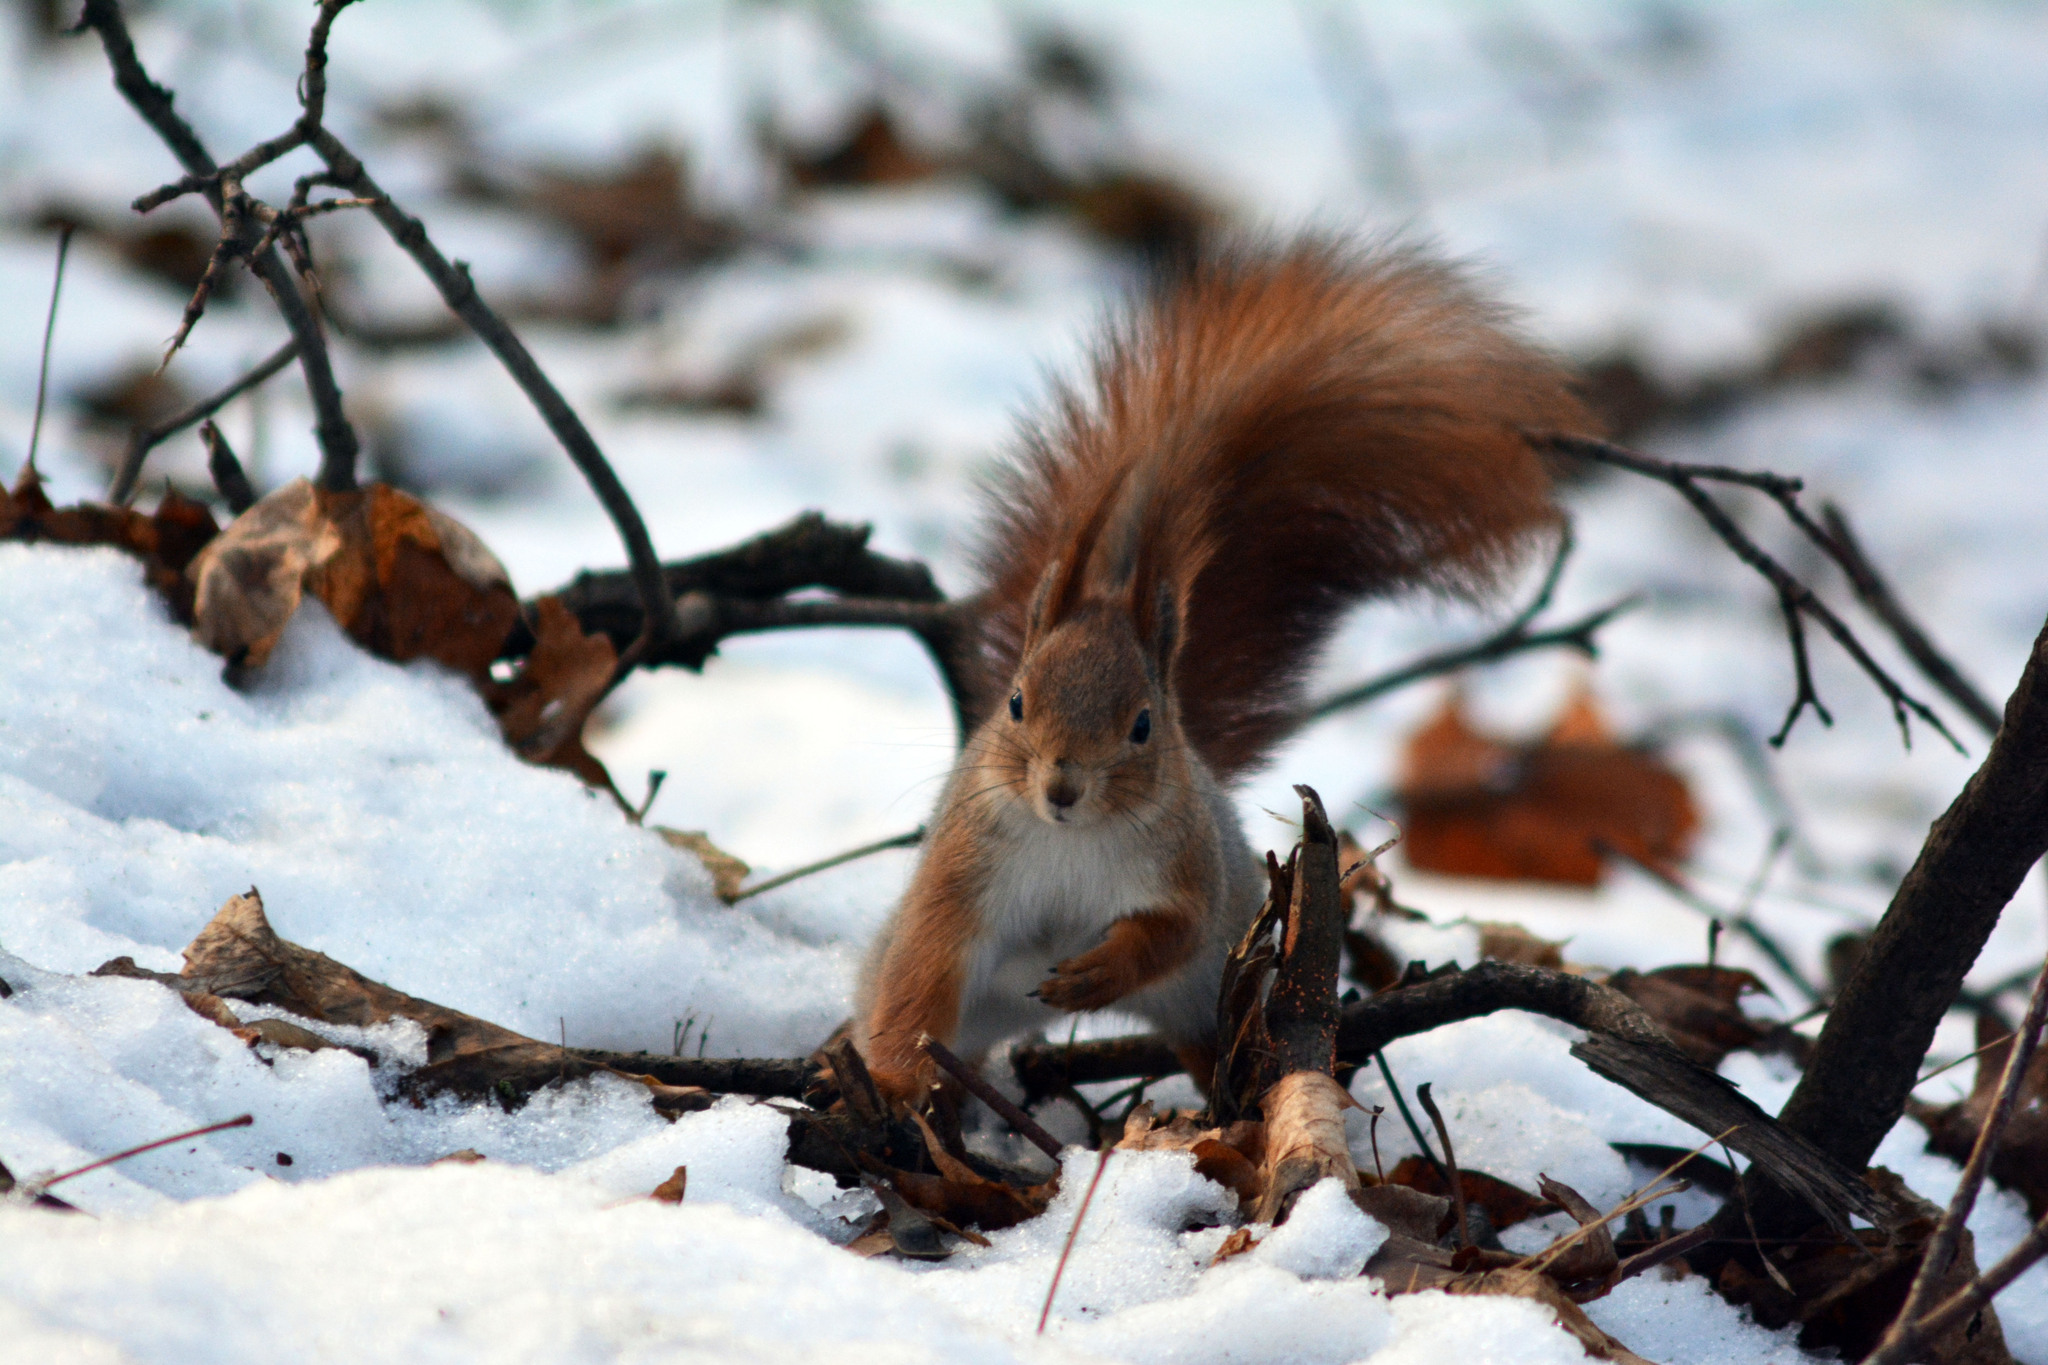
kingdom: Animalia
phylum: Chordata
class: Mammalia
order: Rodentia
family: Sciuridae
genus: Sciurus
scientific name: Sciurus vulgaris
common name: Eurasian red squirrel
